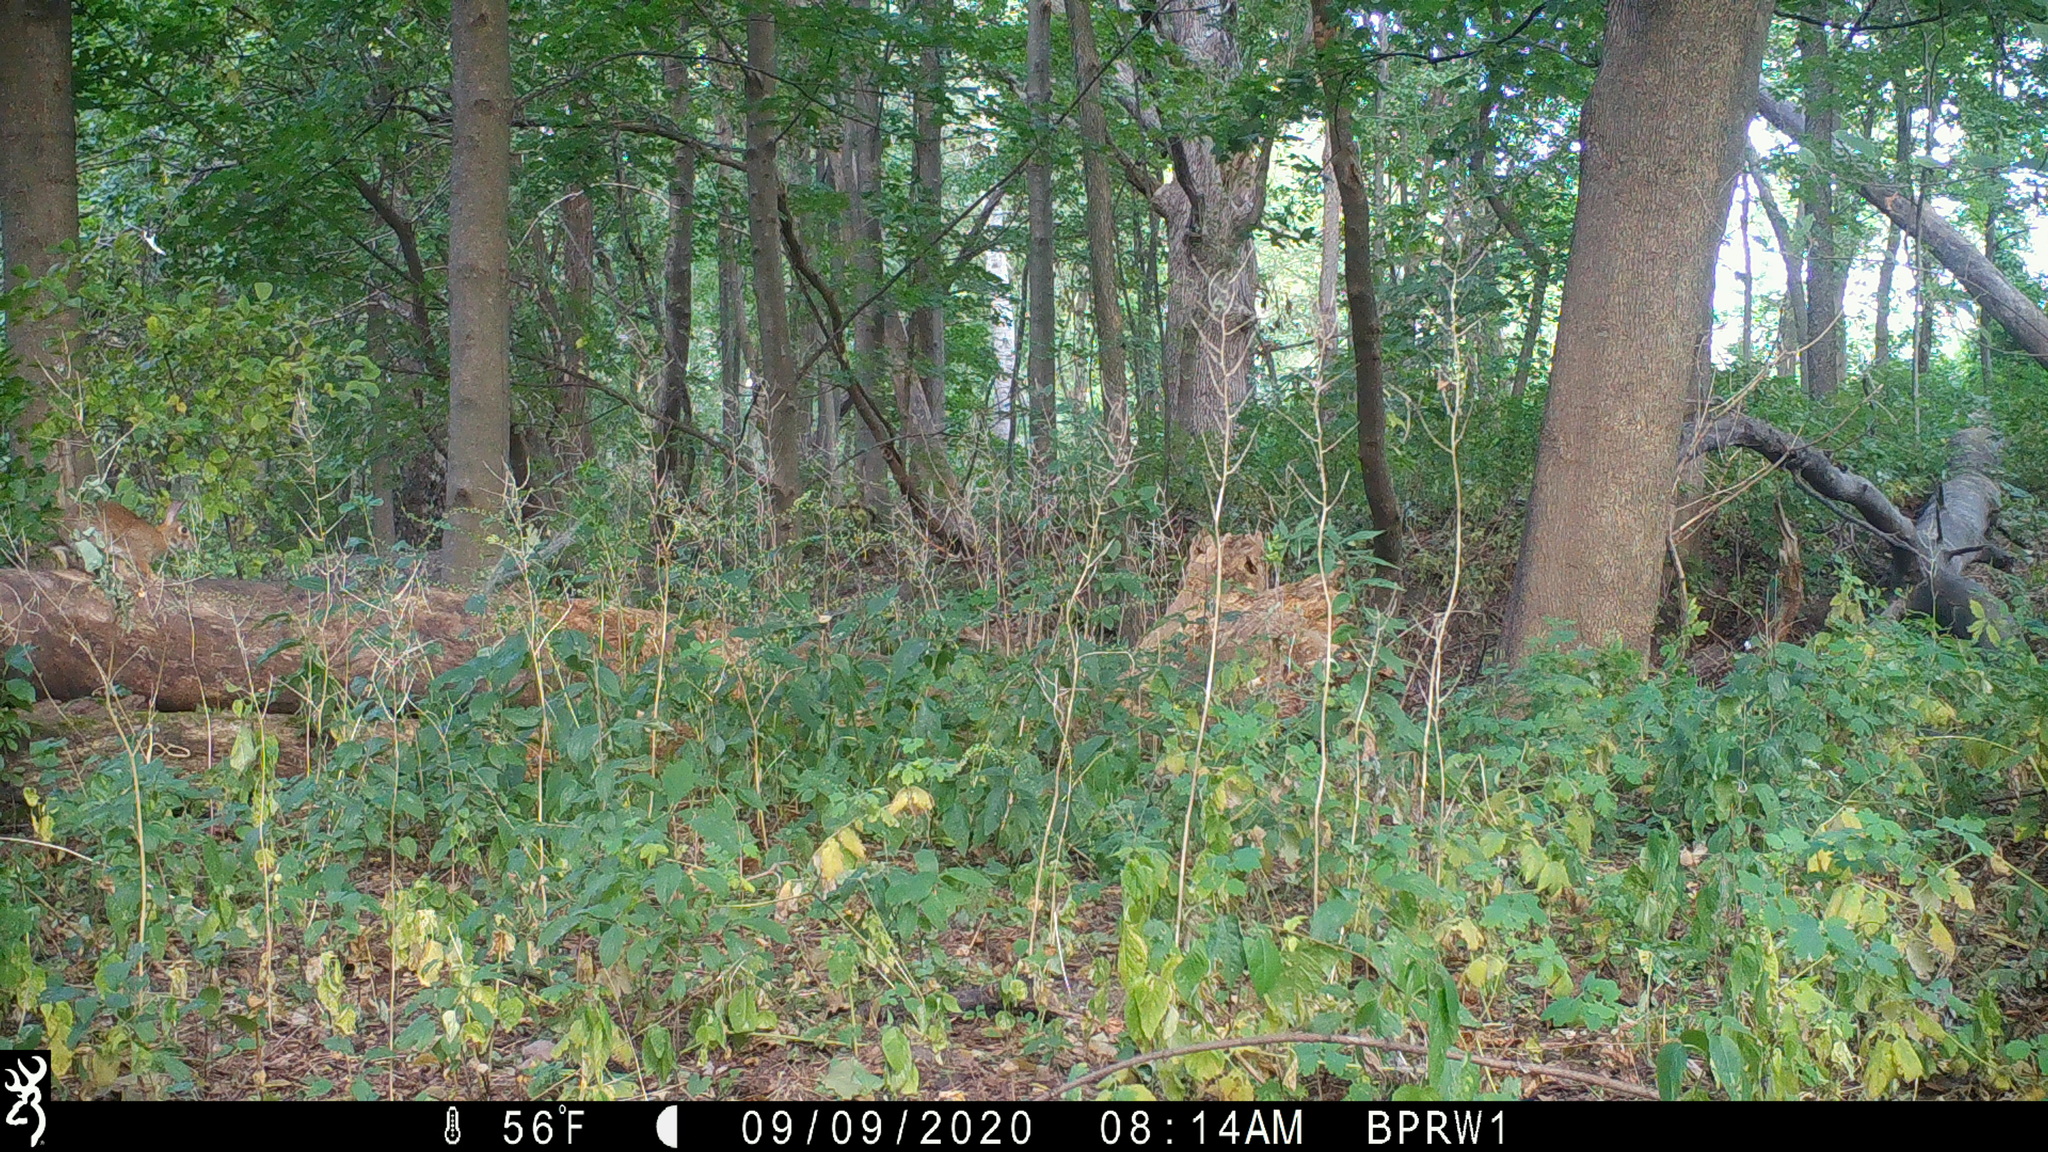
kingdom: Animalia
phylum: Chordata
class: Mammalia
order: Lagomorpha
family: Leporidae
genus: Sylvilagus
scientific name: Sylvilagus floridanus
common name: Eastern cottontail
